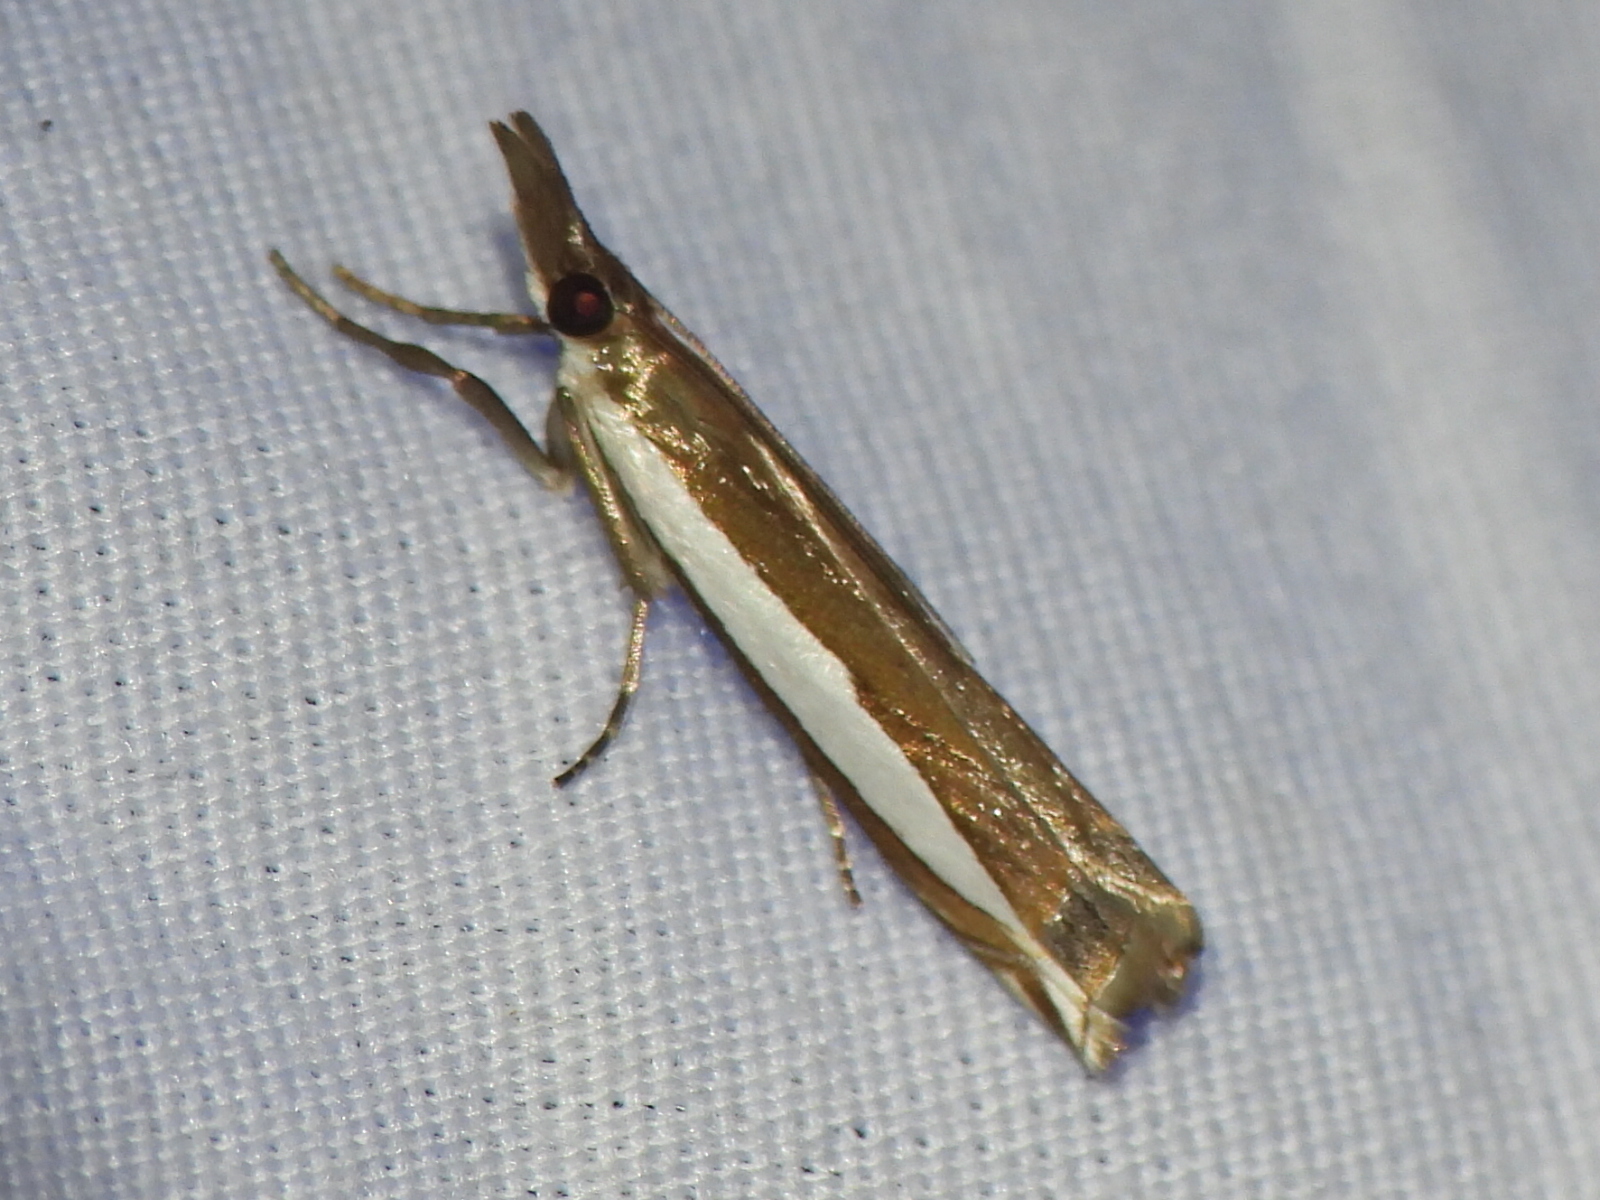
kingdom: Animalia
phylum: Arthropoda
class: Insecta
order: Lepidoptera
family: Crambidae
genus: Crambus
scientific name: Crambus quinquareatus
